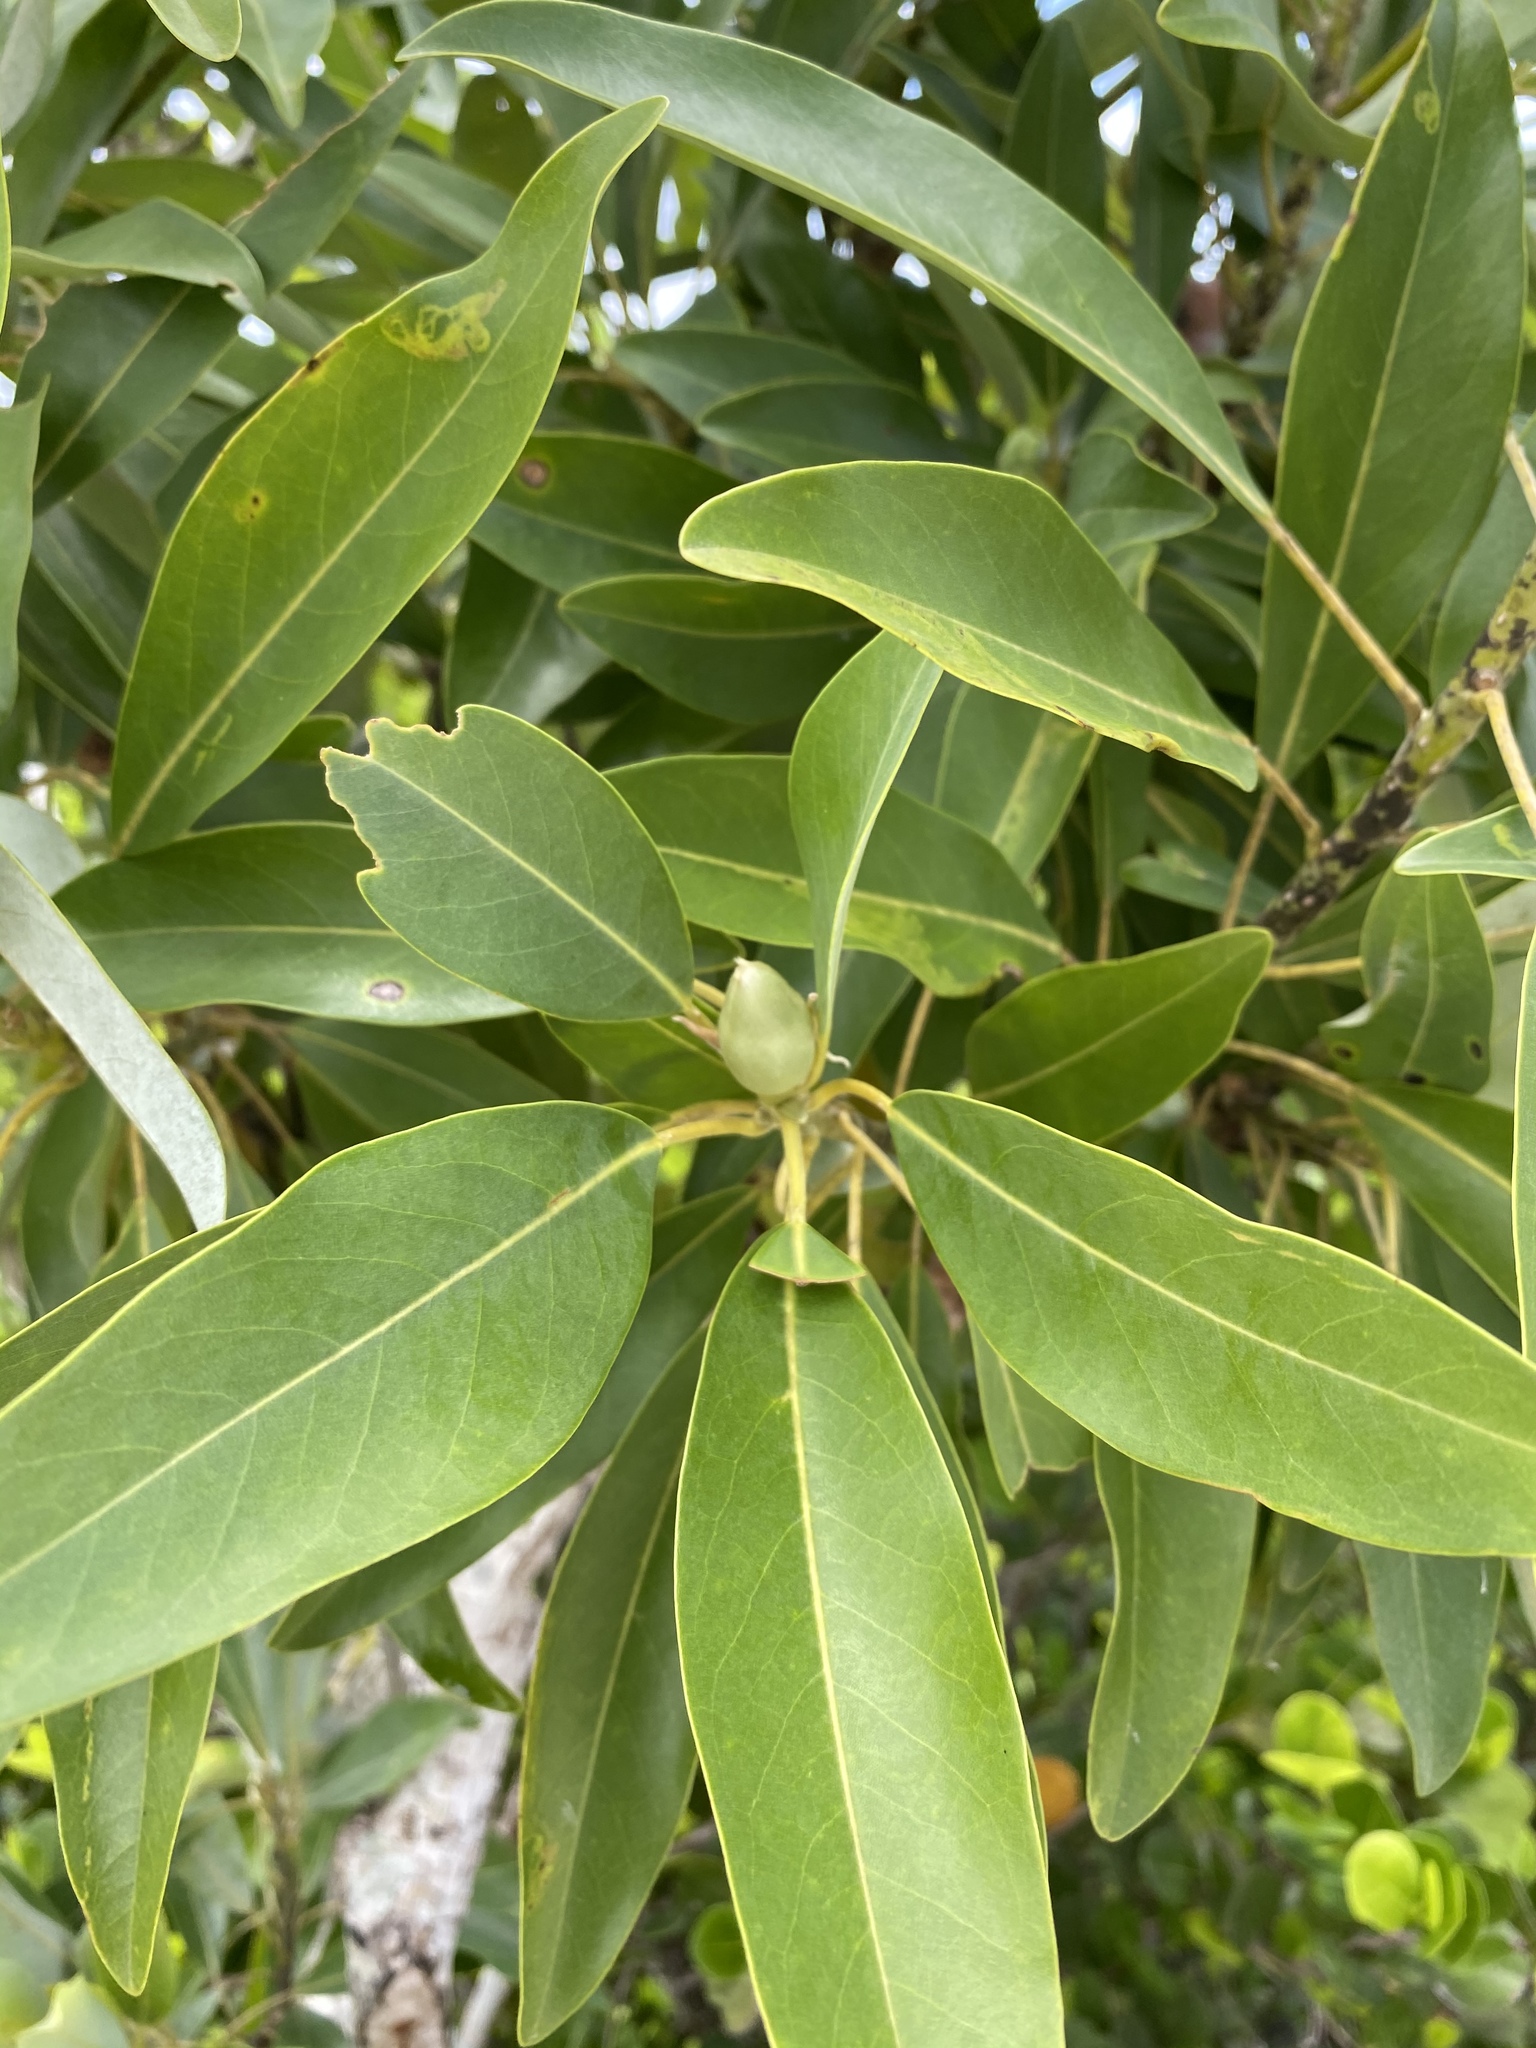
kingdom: Plantae
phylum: Tracheophyta
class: Magnoliopsida
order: Magnoliales
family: Magnoliaceae
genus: Magnolia
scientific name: Magnolia virginiana
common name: Swamp bay
